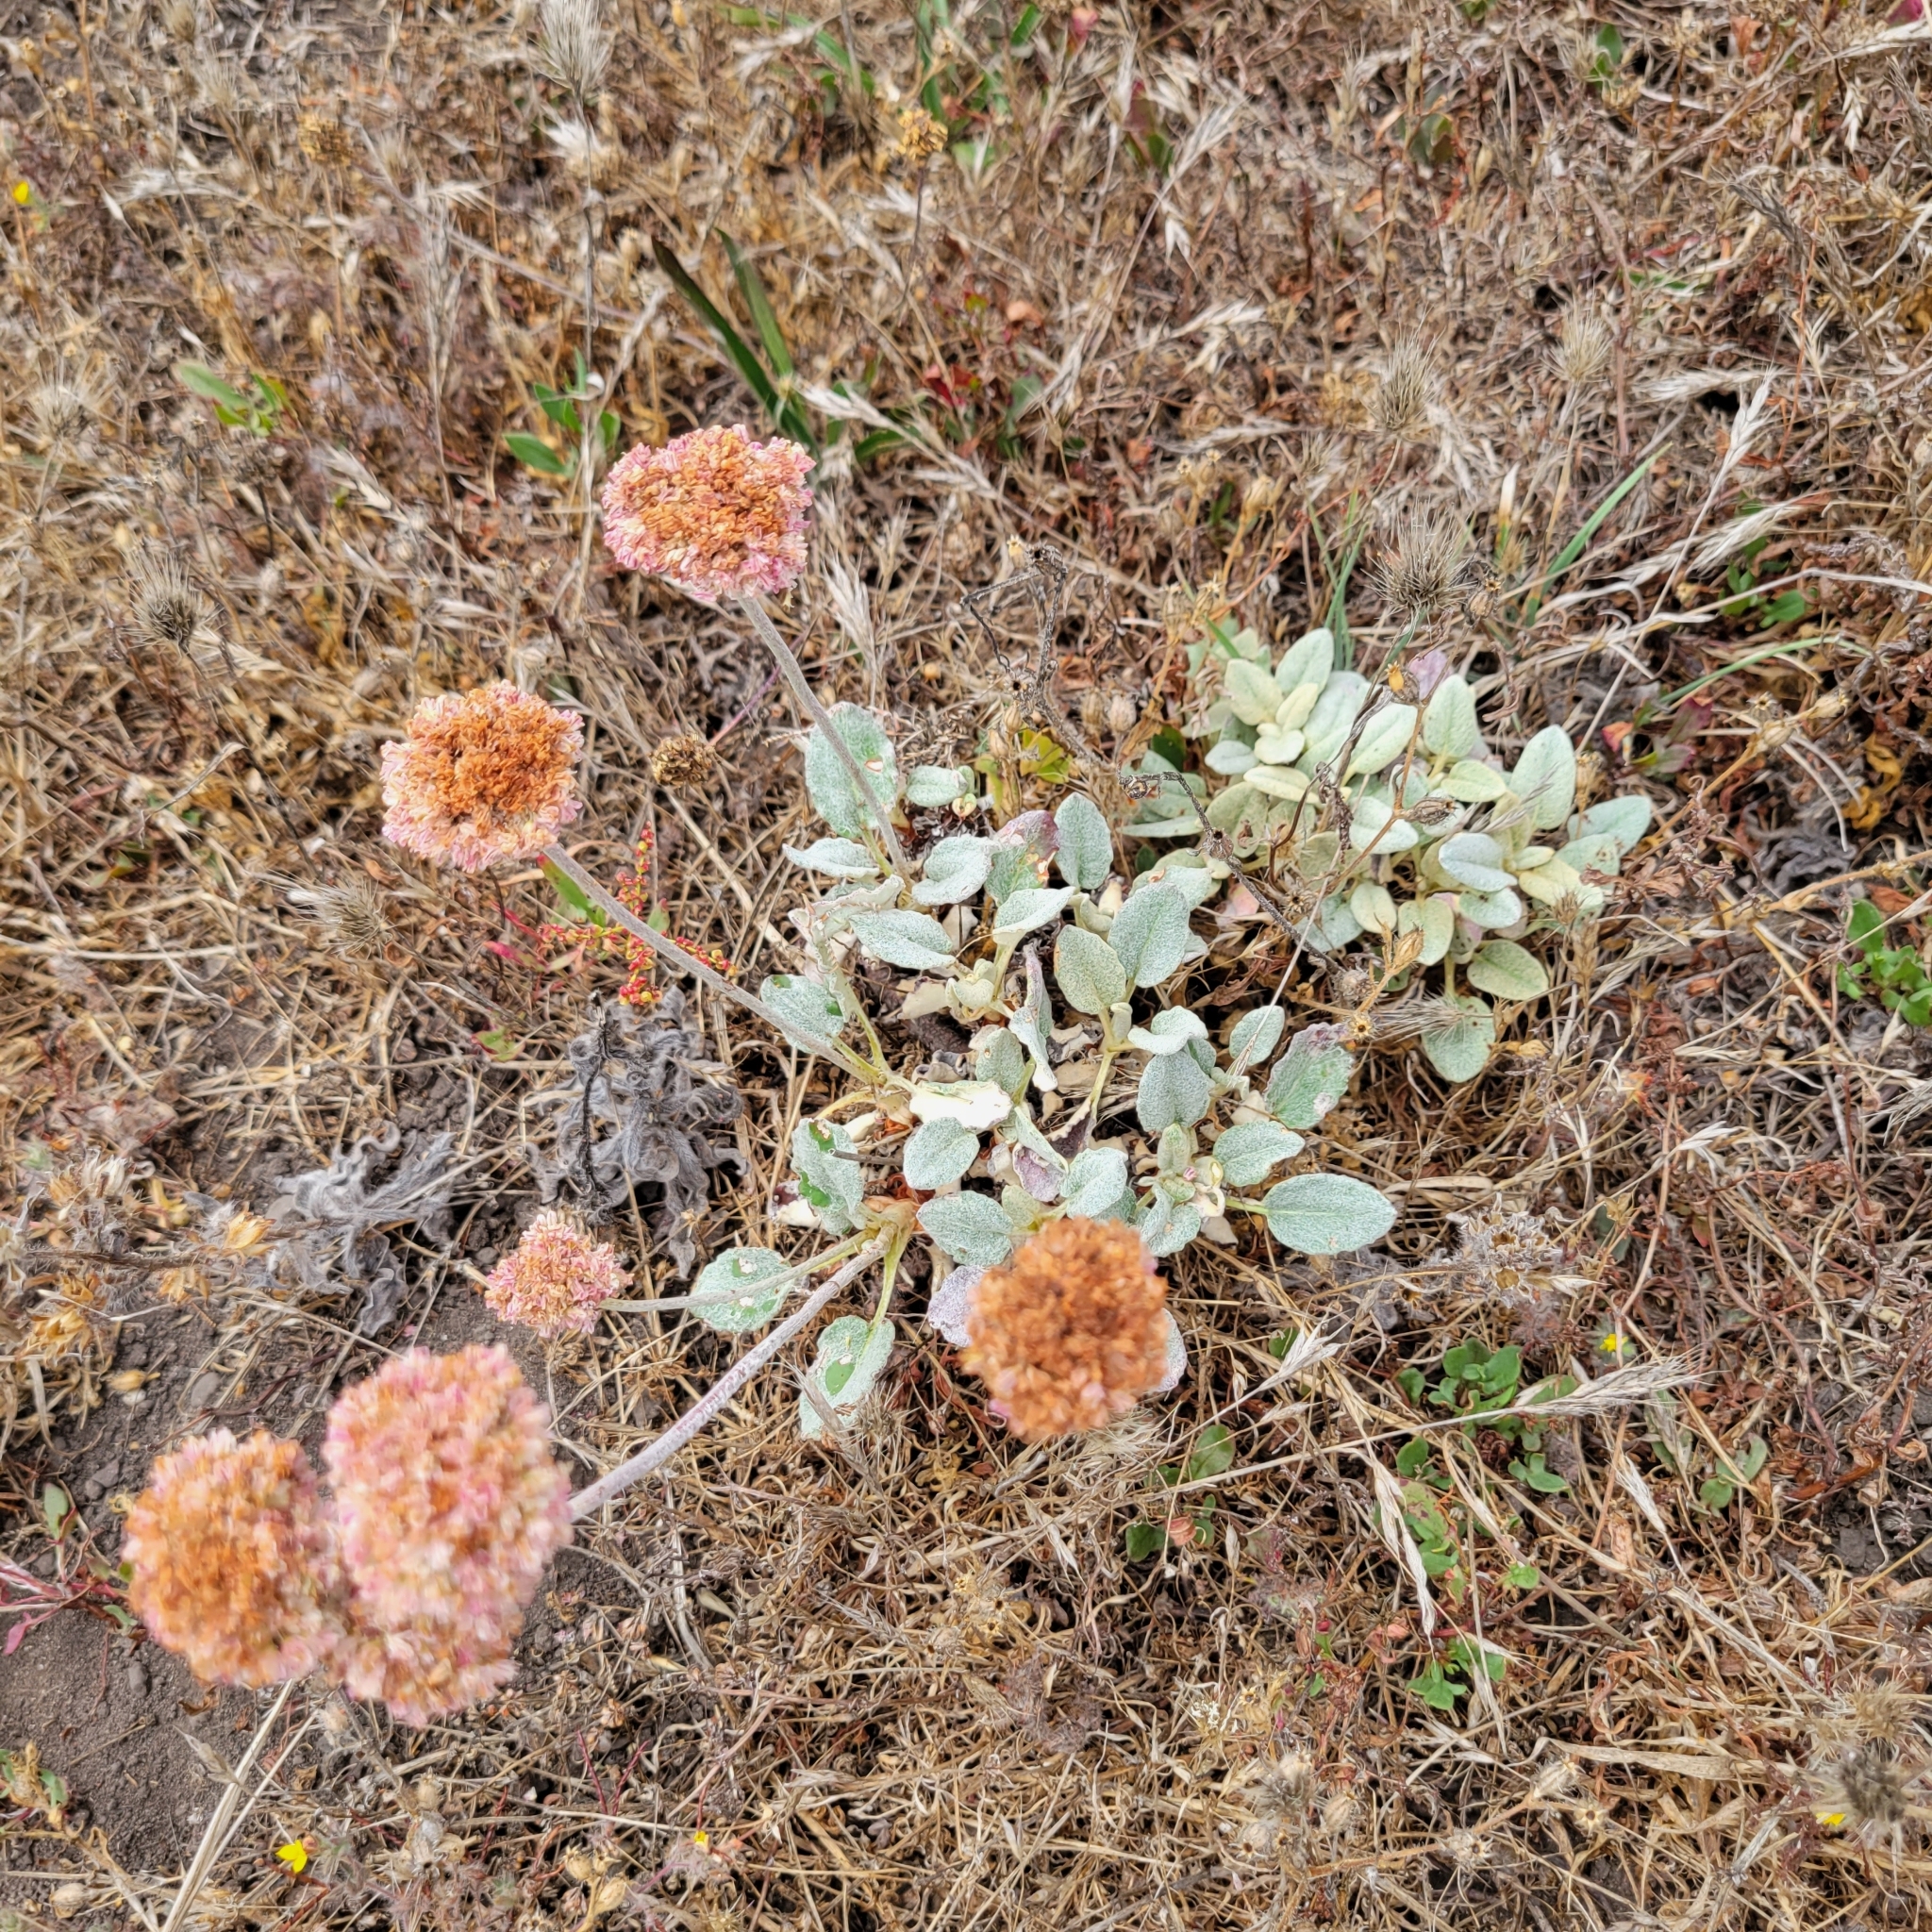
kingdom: Plantae
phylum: Tracheophyta
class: Magnoliopsida
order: Caryophyllales
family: Polygonaceae
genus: Eriogonum
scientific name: Eriogonum latifolium
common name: Seaside wild buckwheat
